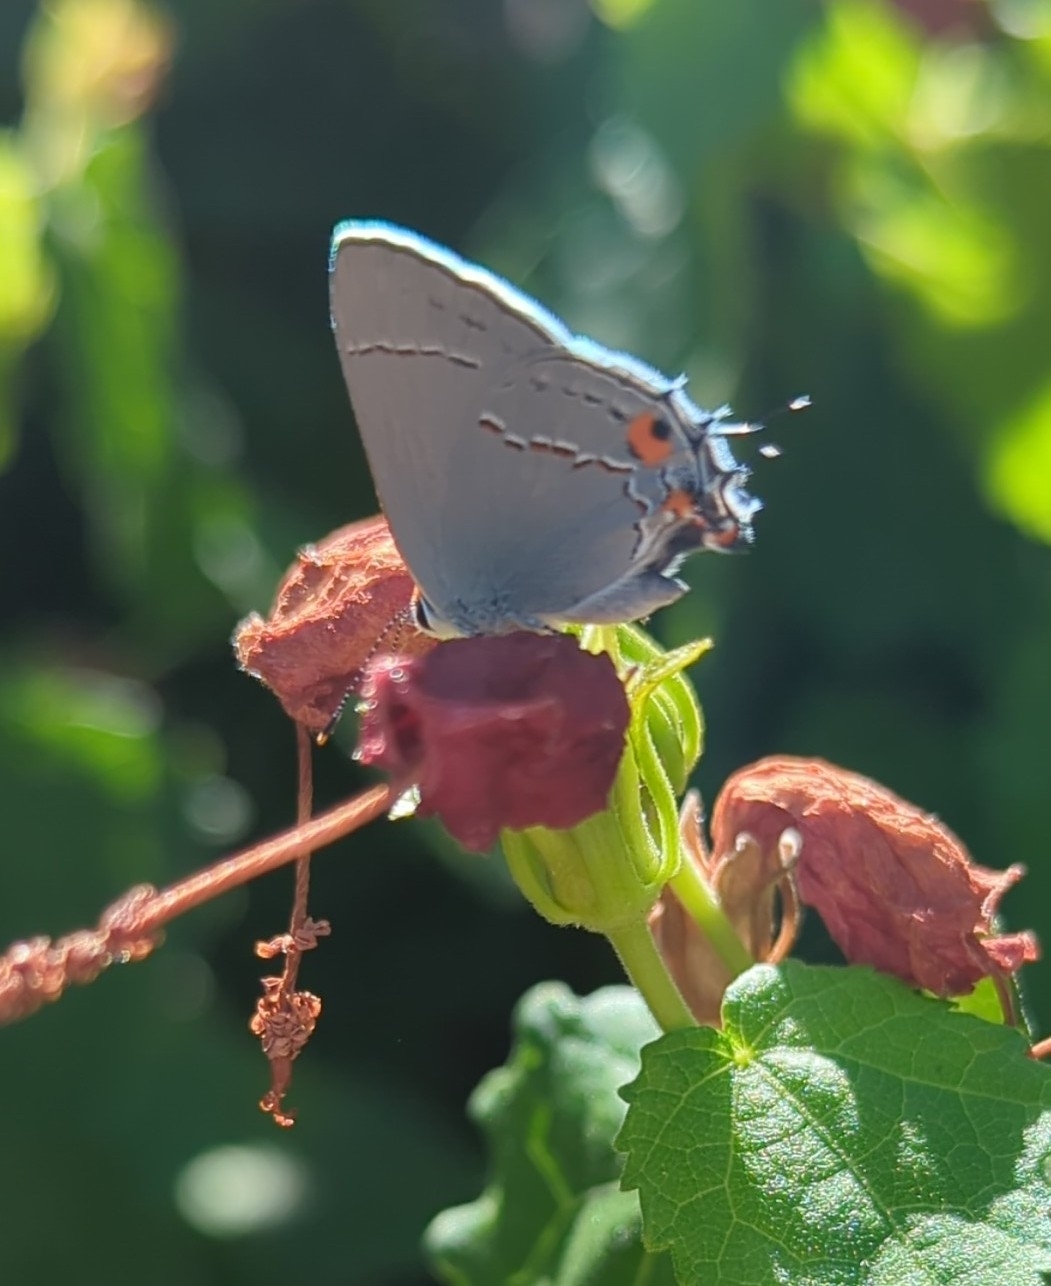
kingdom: Animalia
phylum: Arthropoda
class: Insecta
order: Lepidoptera
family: Lycaenidae
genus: Strymon
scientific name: Strymon melinus
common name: Gray hairstreak
